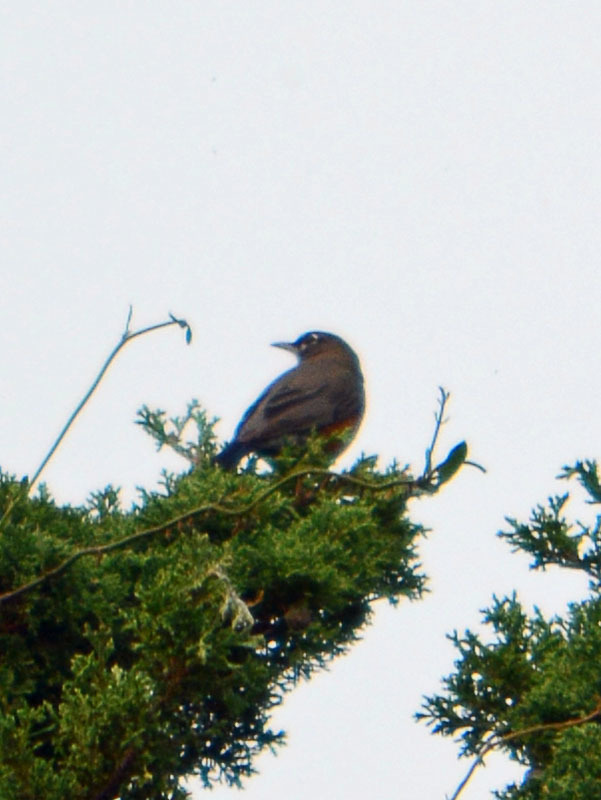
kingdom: Animalia
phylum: Chordata
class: Aves
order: Passeriformes
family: Turdidae
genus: Turdus
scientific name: Turdus migratorius
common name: American robin
